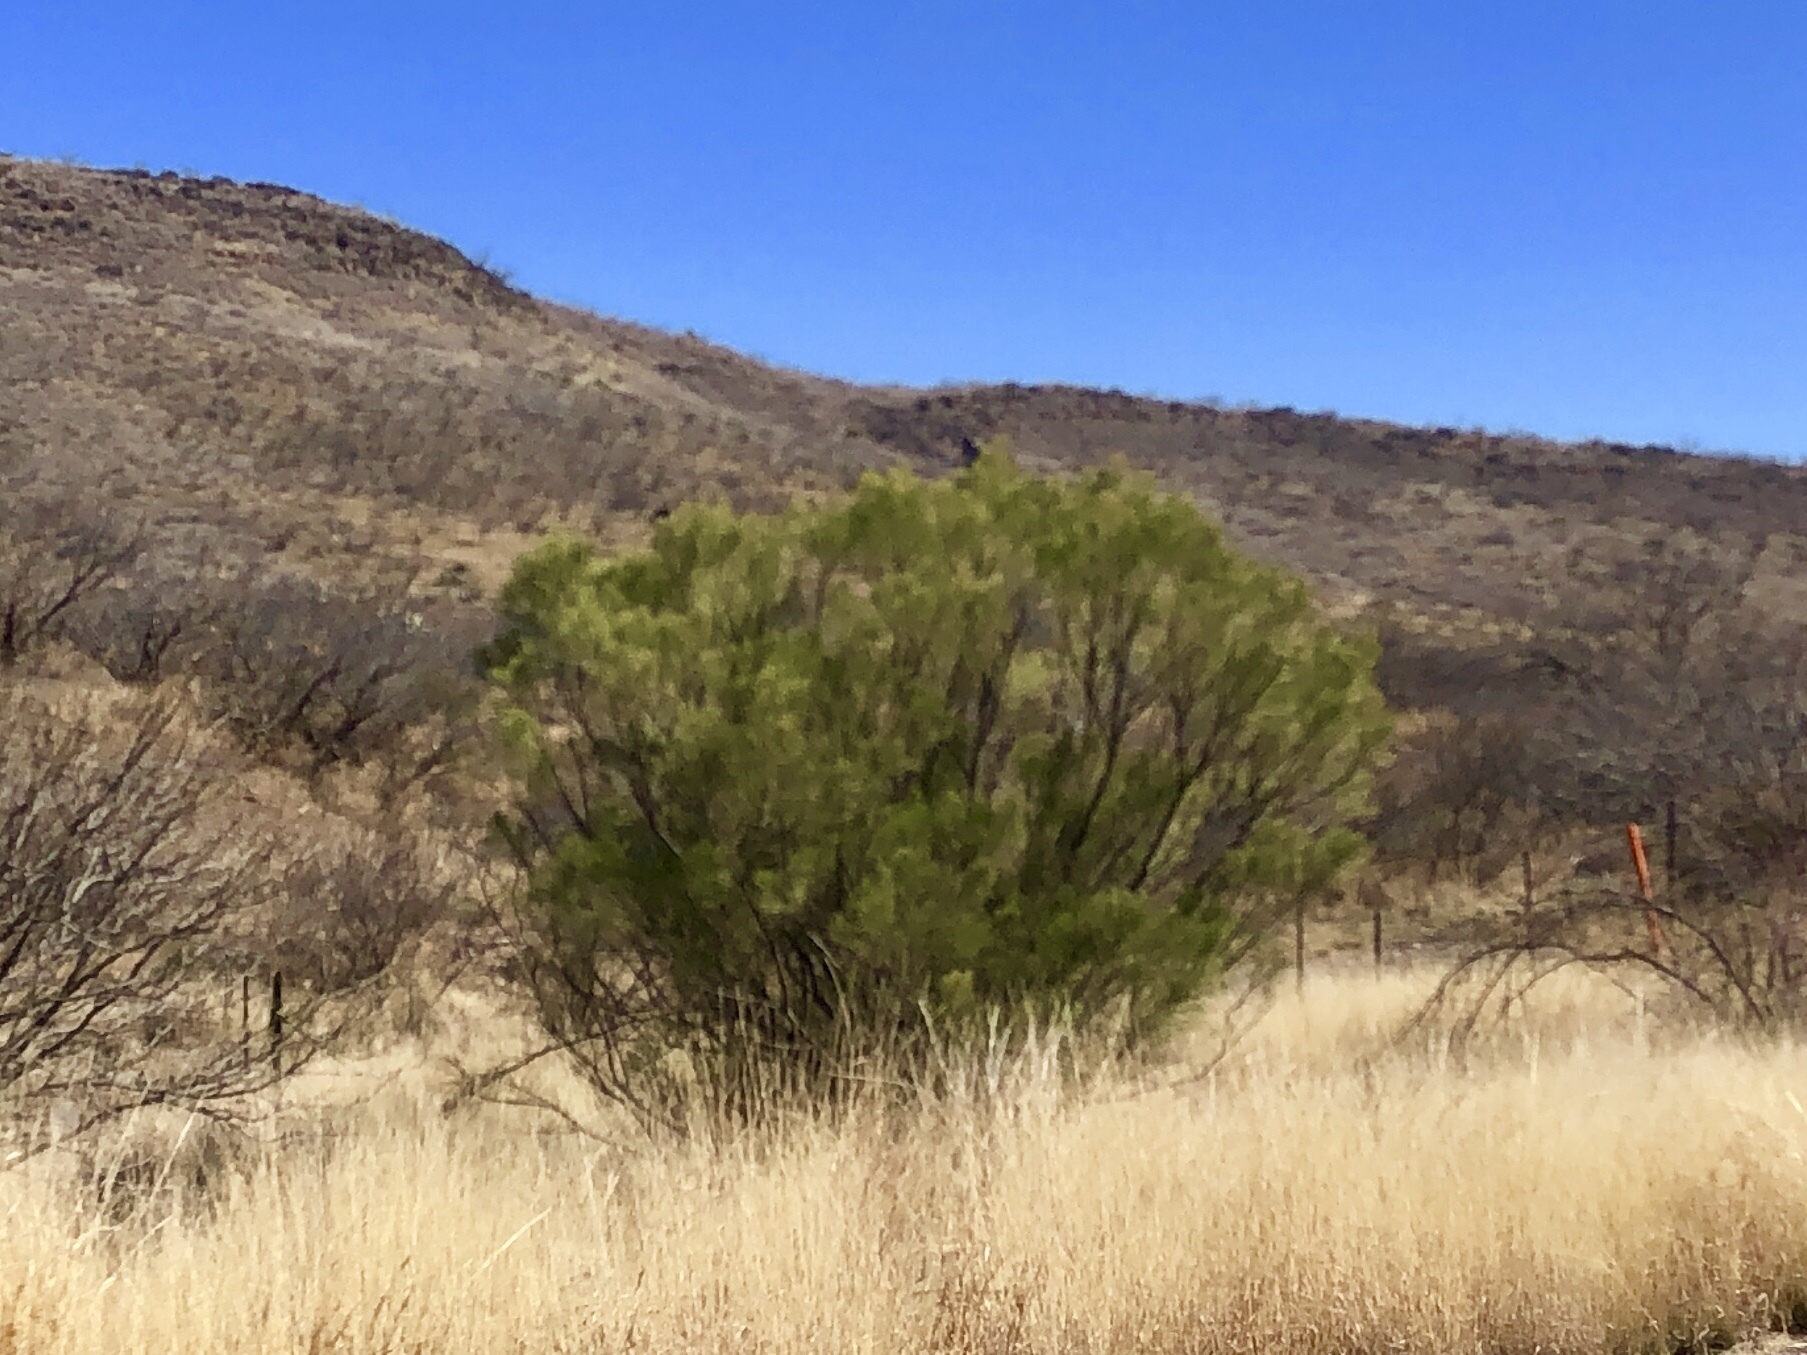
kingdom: Plantae
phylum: Tracheophyta
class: Magnoliopsida
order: Asterales
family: Asteraceae
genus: Baccharis
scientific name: Baccharis sarothroides
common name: Desert-broom
